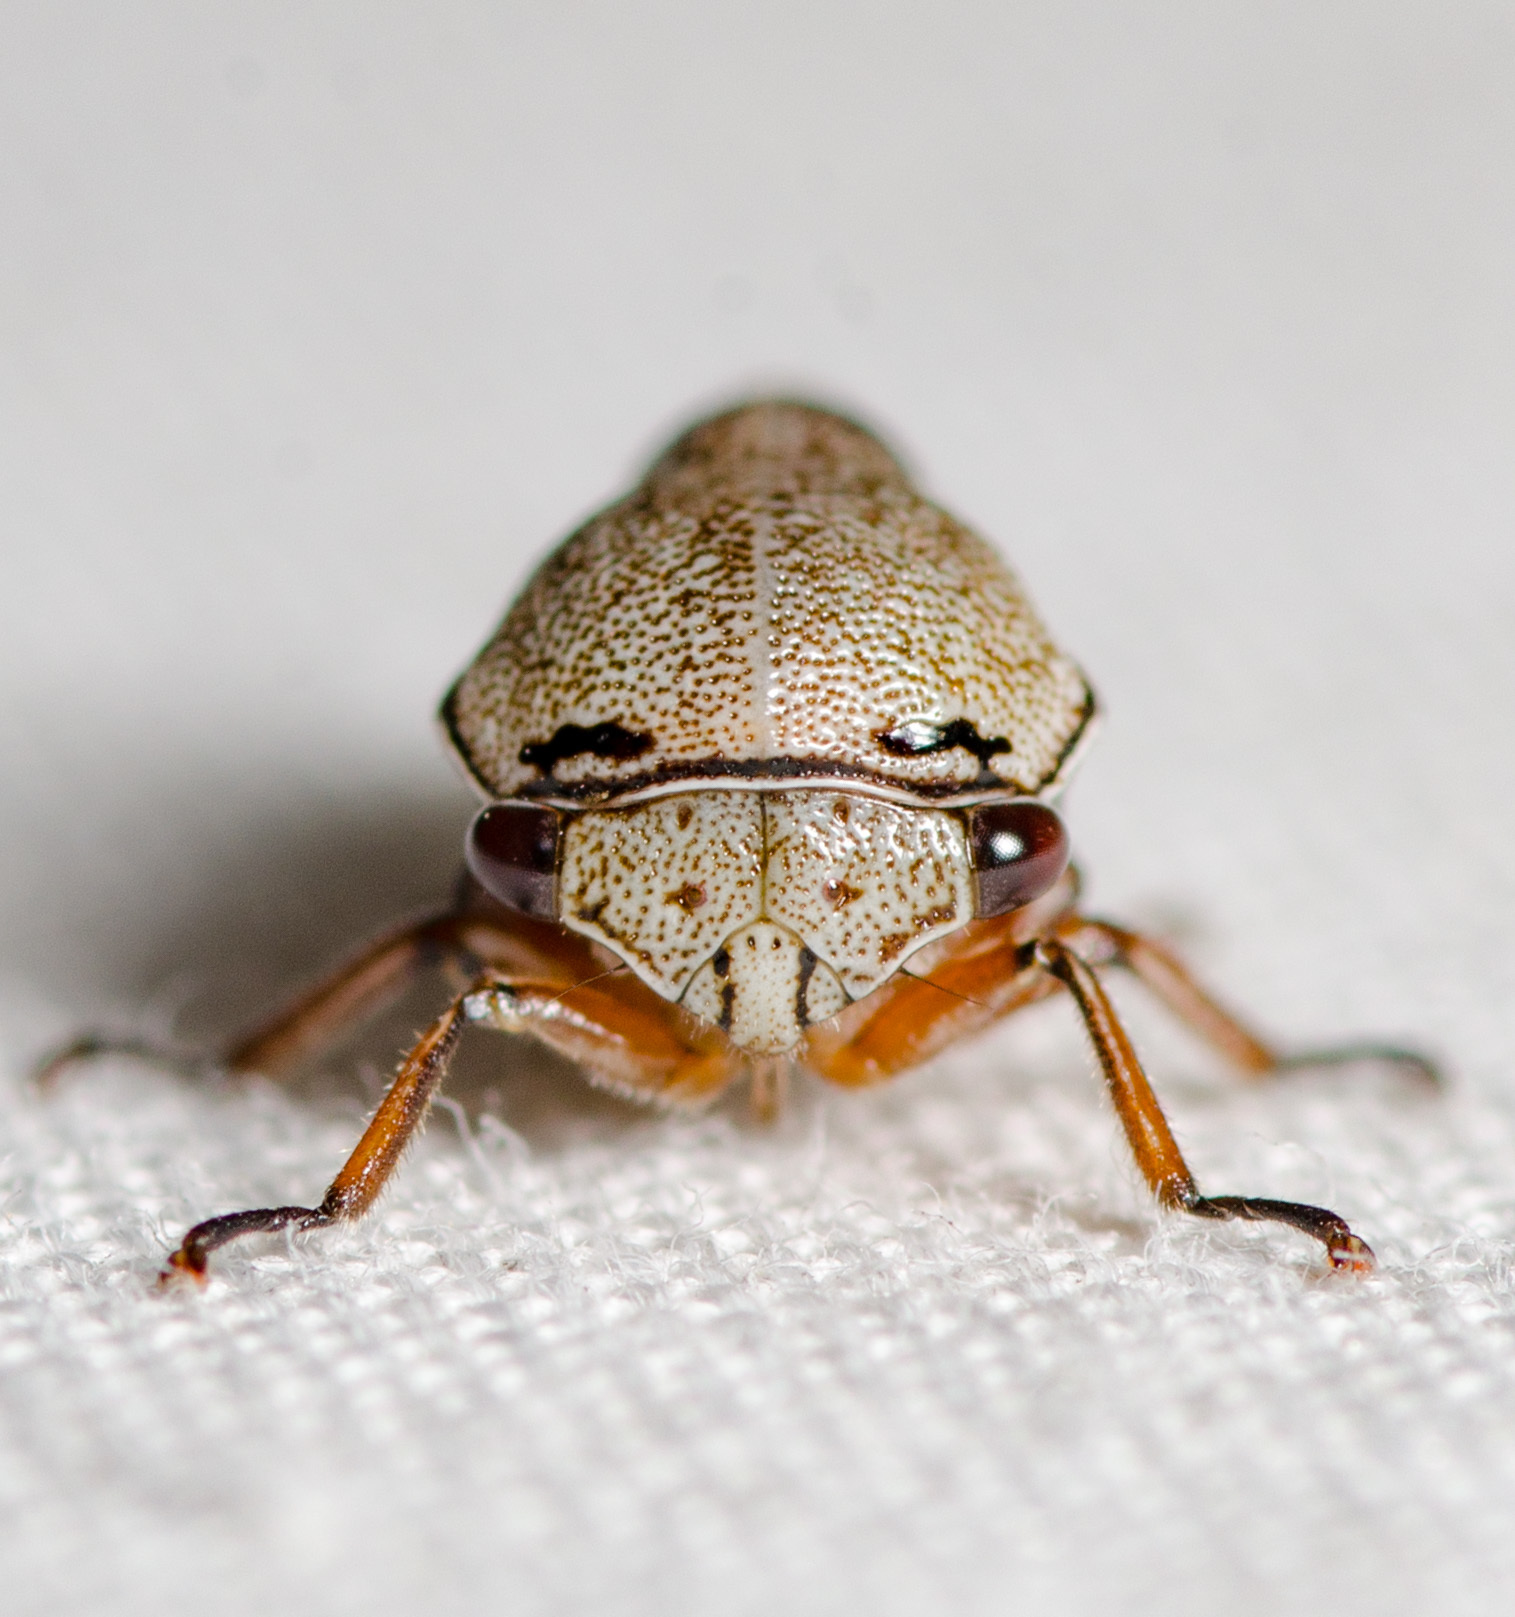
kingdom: Animalia
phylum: Arthropoda
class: Insecta
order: Hemiptera
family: Membracidae
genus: Xantholobus
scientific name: Xantholobus nigrocincta
